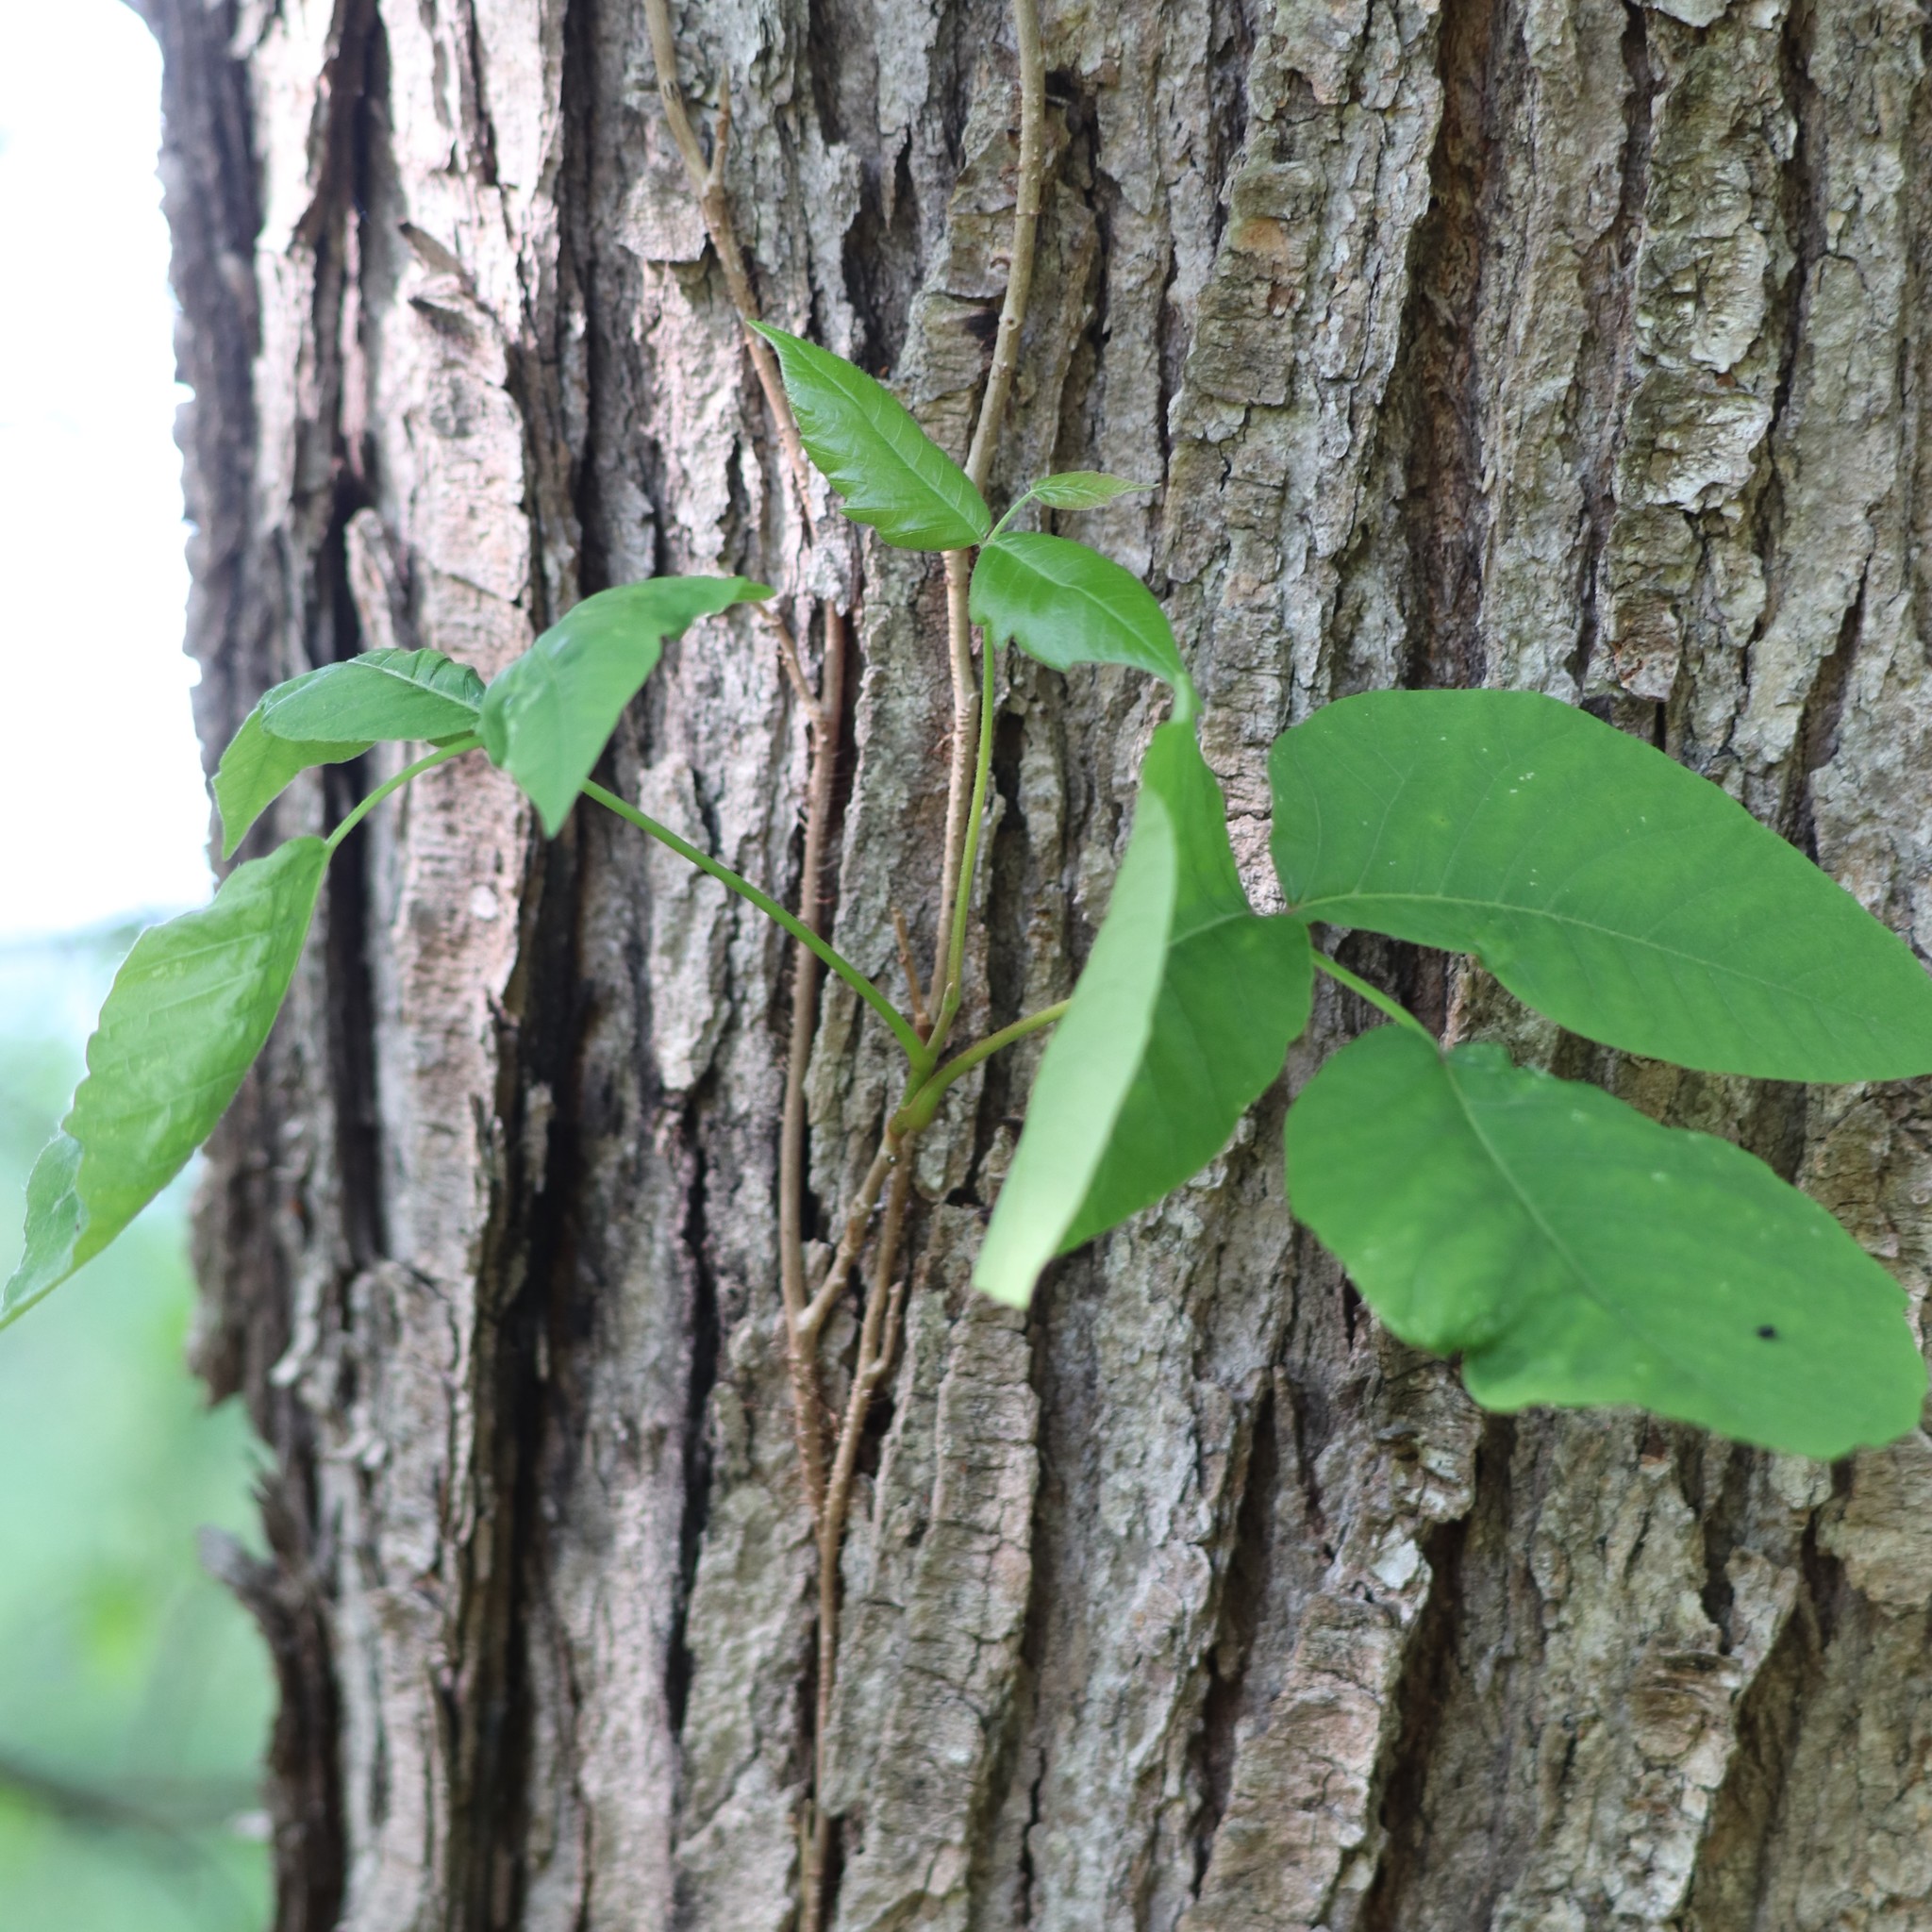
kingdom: Plantae
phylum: Tracheophyta
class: Magnoliopsida
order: Sapindales
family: Anacardiaceae
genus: Toxicodendron
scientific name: Toxicodendron radicans
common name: Poison ivy
